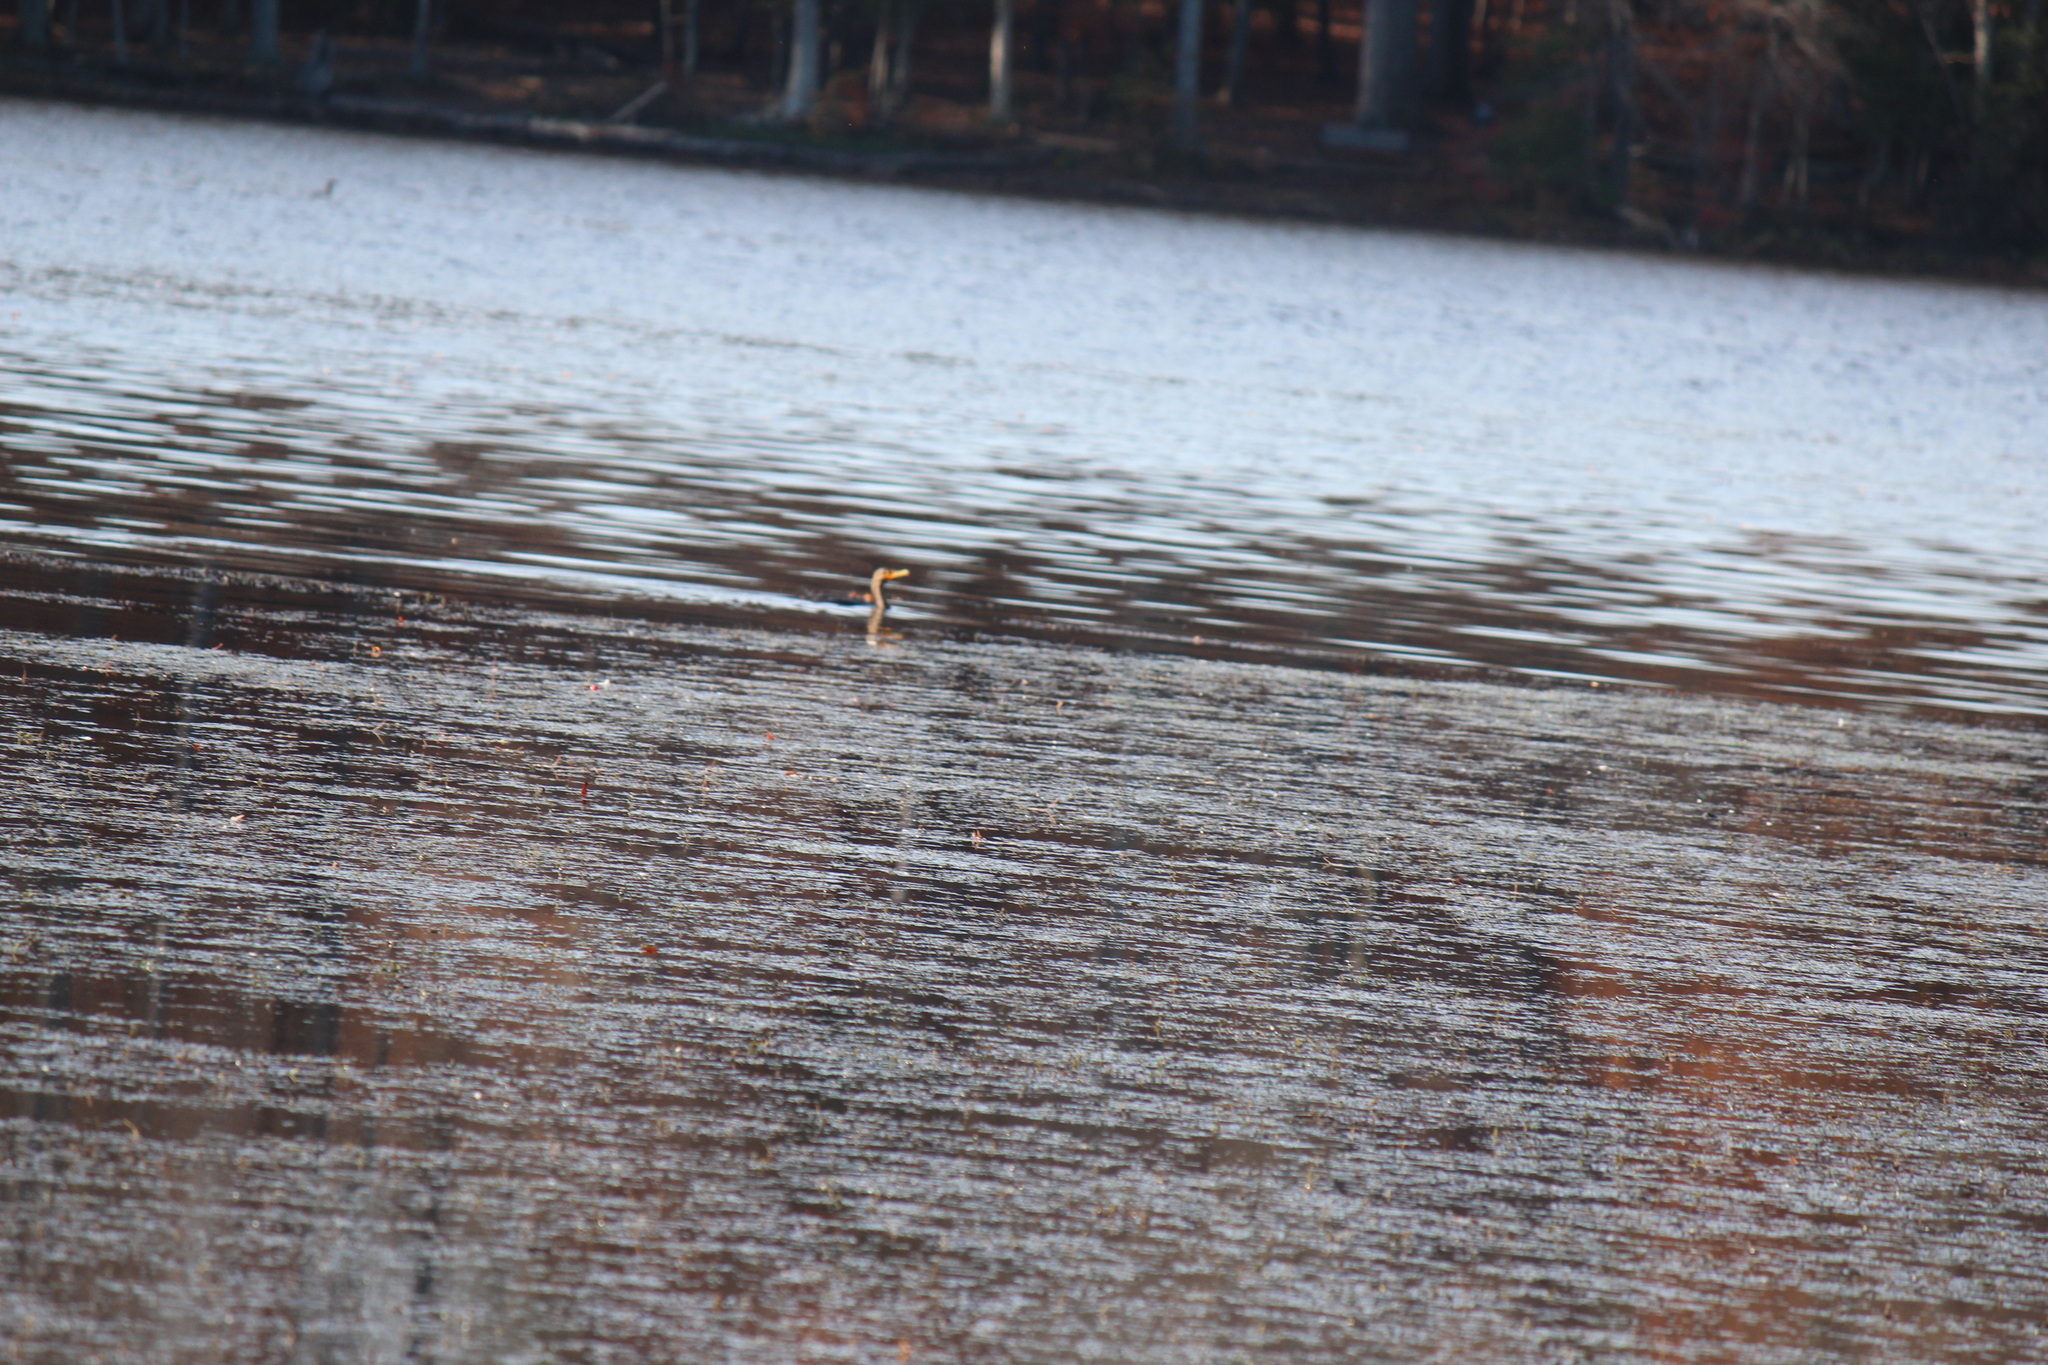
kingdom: Animalia
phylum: Chordata
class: Aves
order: Suliformes
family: Phalacrocoracidae
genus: Phalacrocorax
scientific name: Phalacrocorax auritus
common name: Double-crested cormorant
